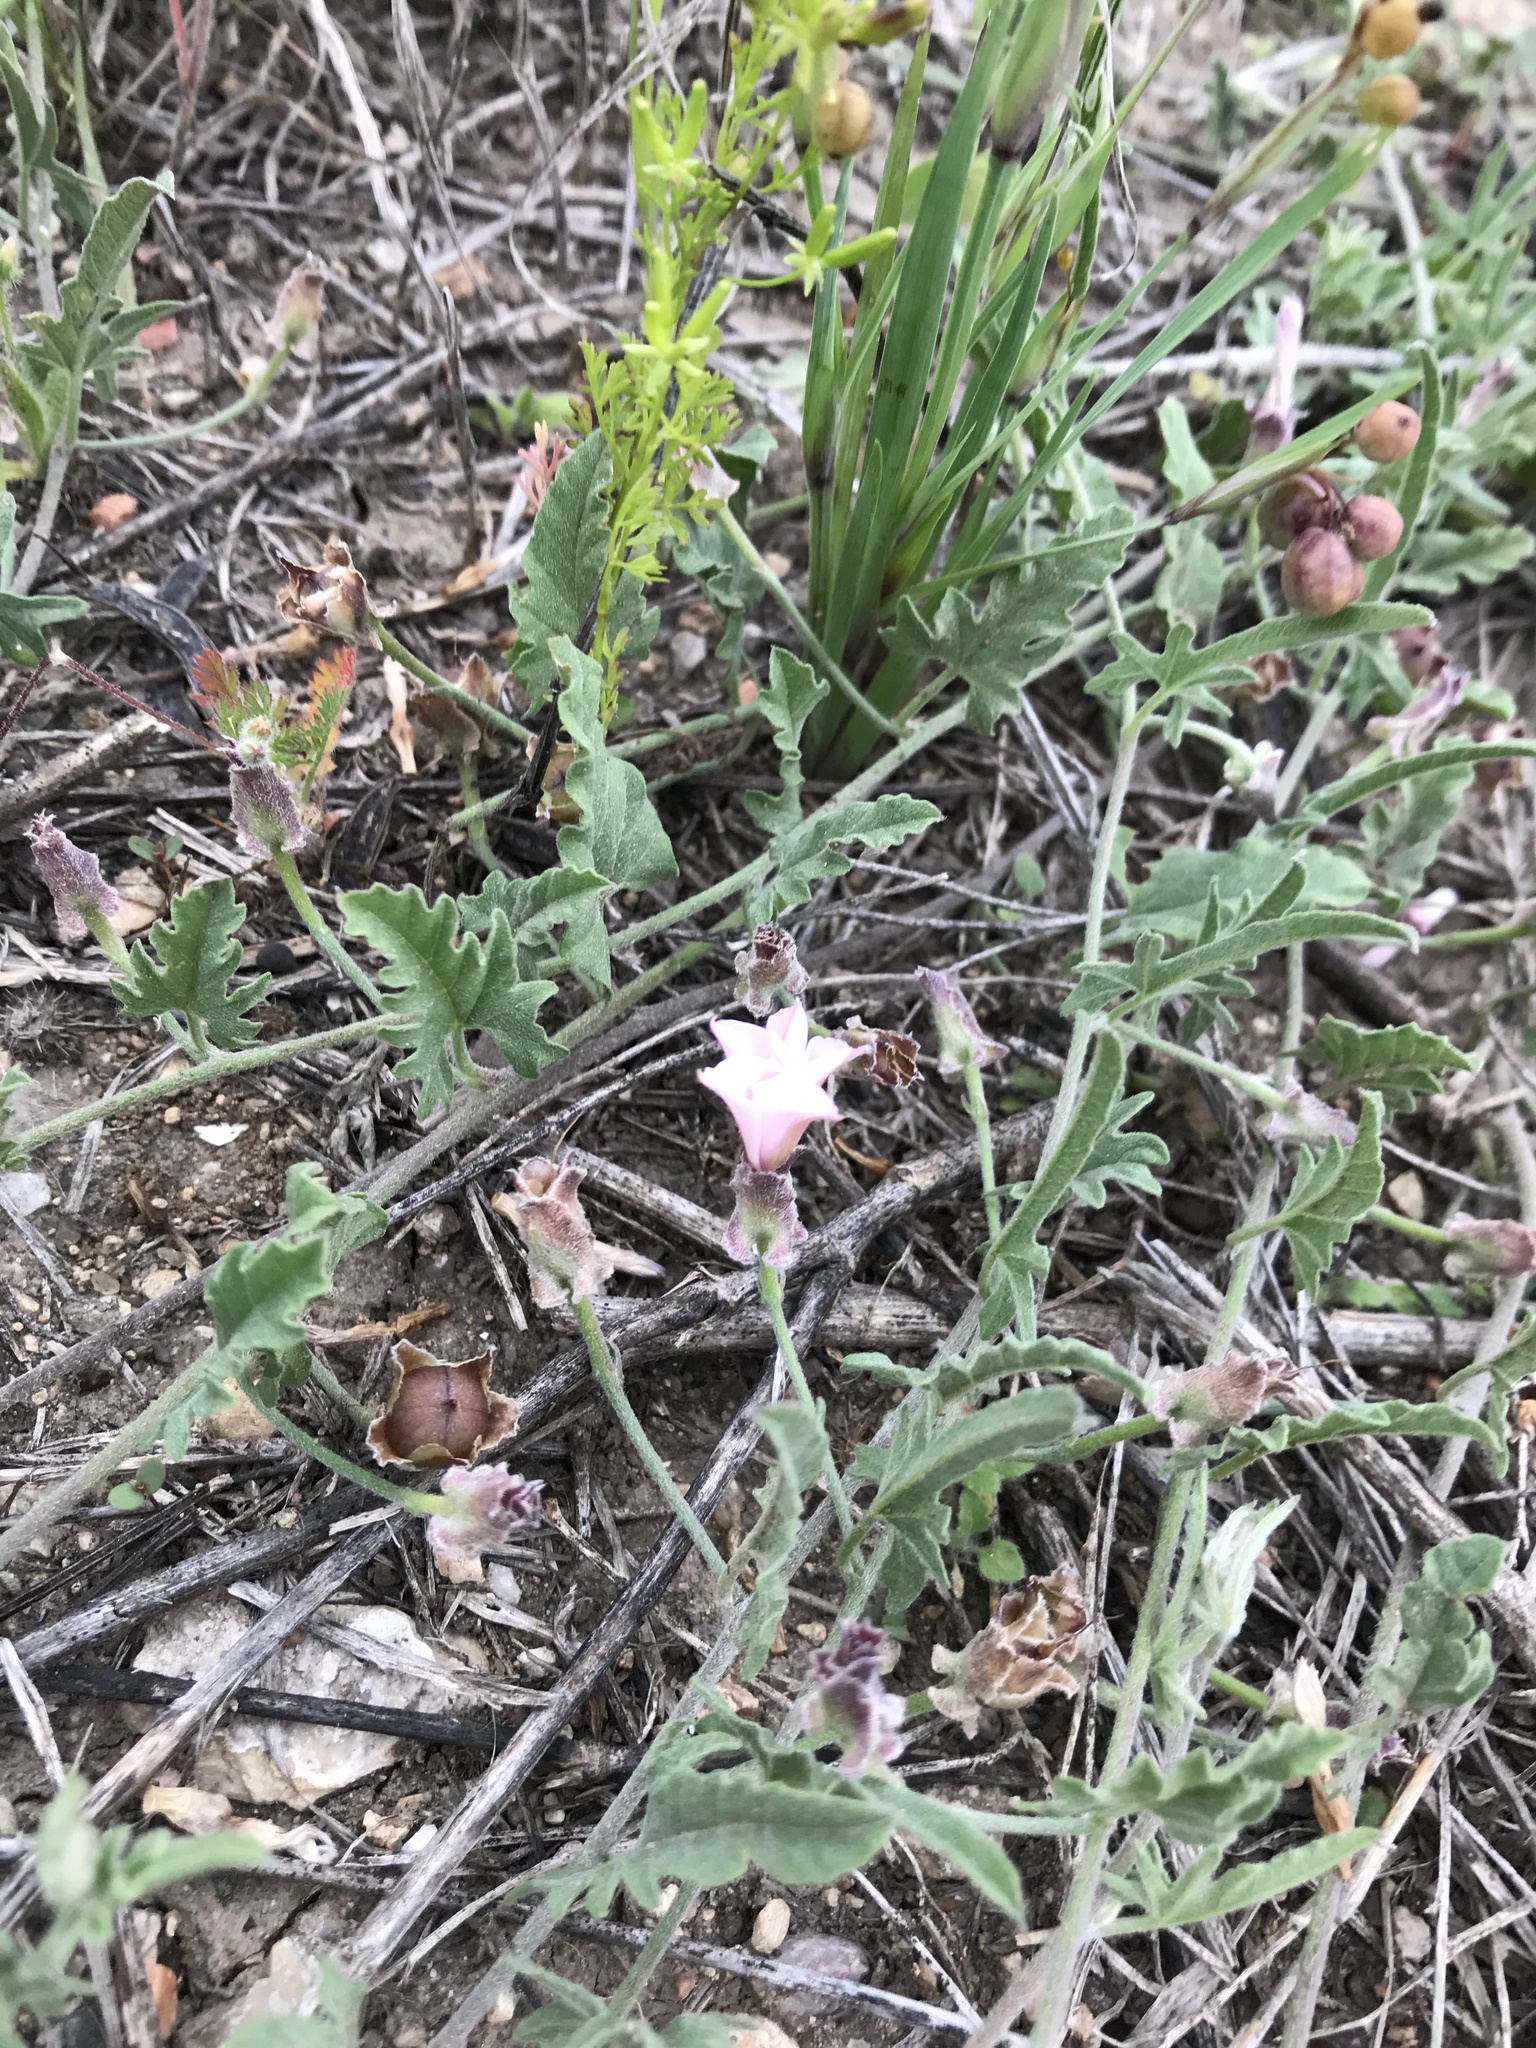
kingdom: Plantae
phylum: Tracheophyta
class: Magnoliopsida
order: Solanales
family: Convolvulaceae
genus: Convolvulus
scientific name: Convolvulus equitans
